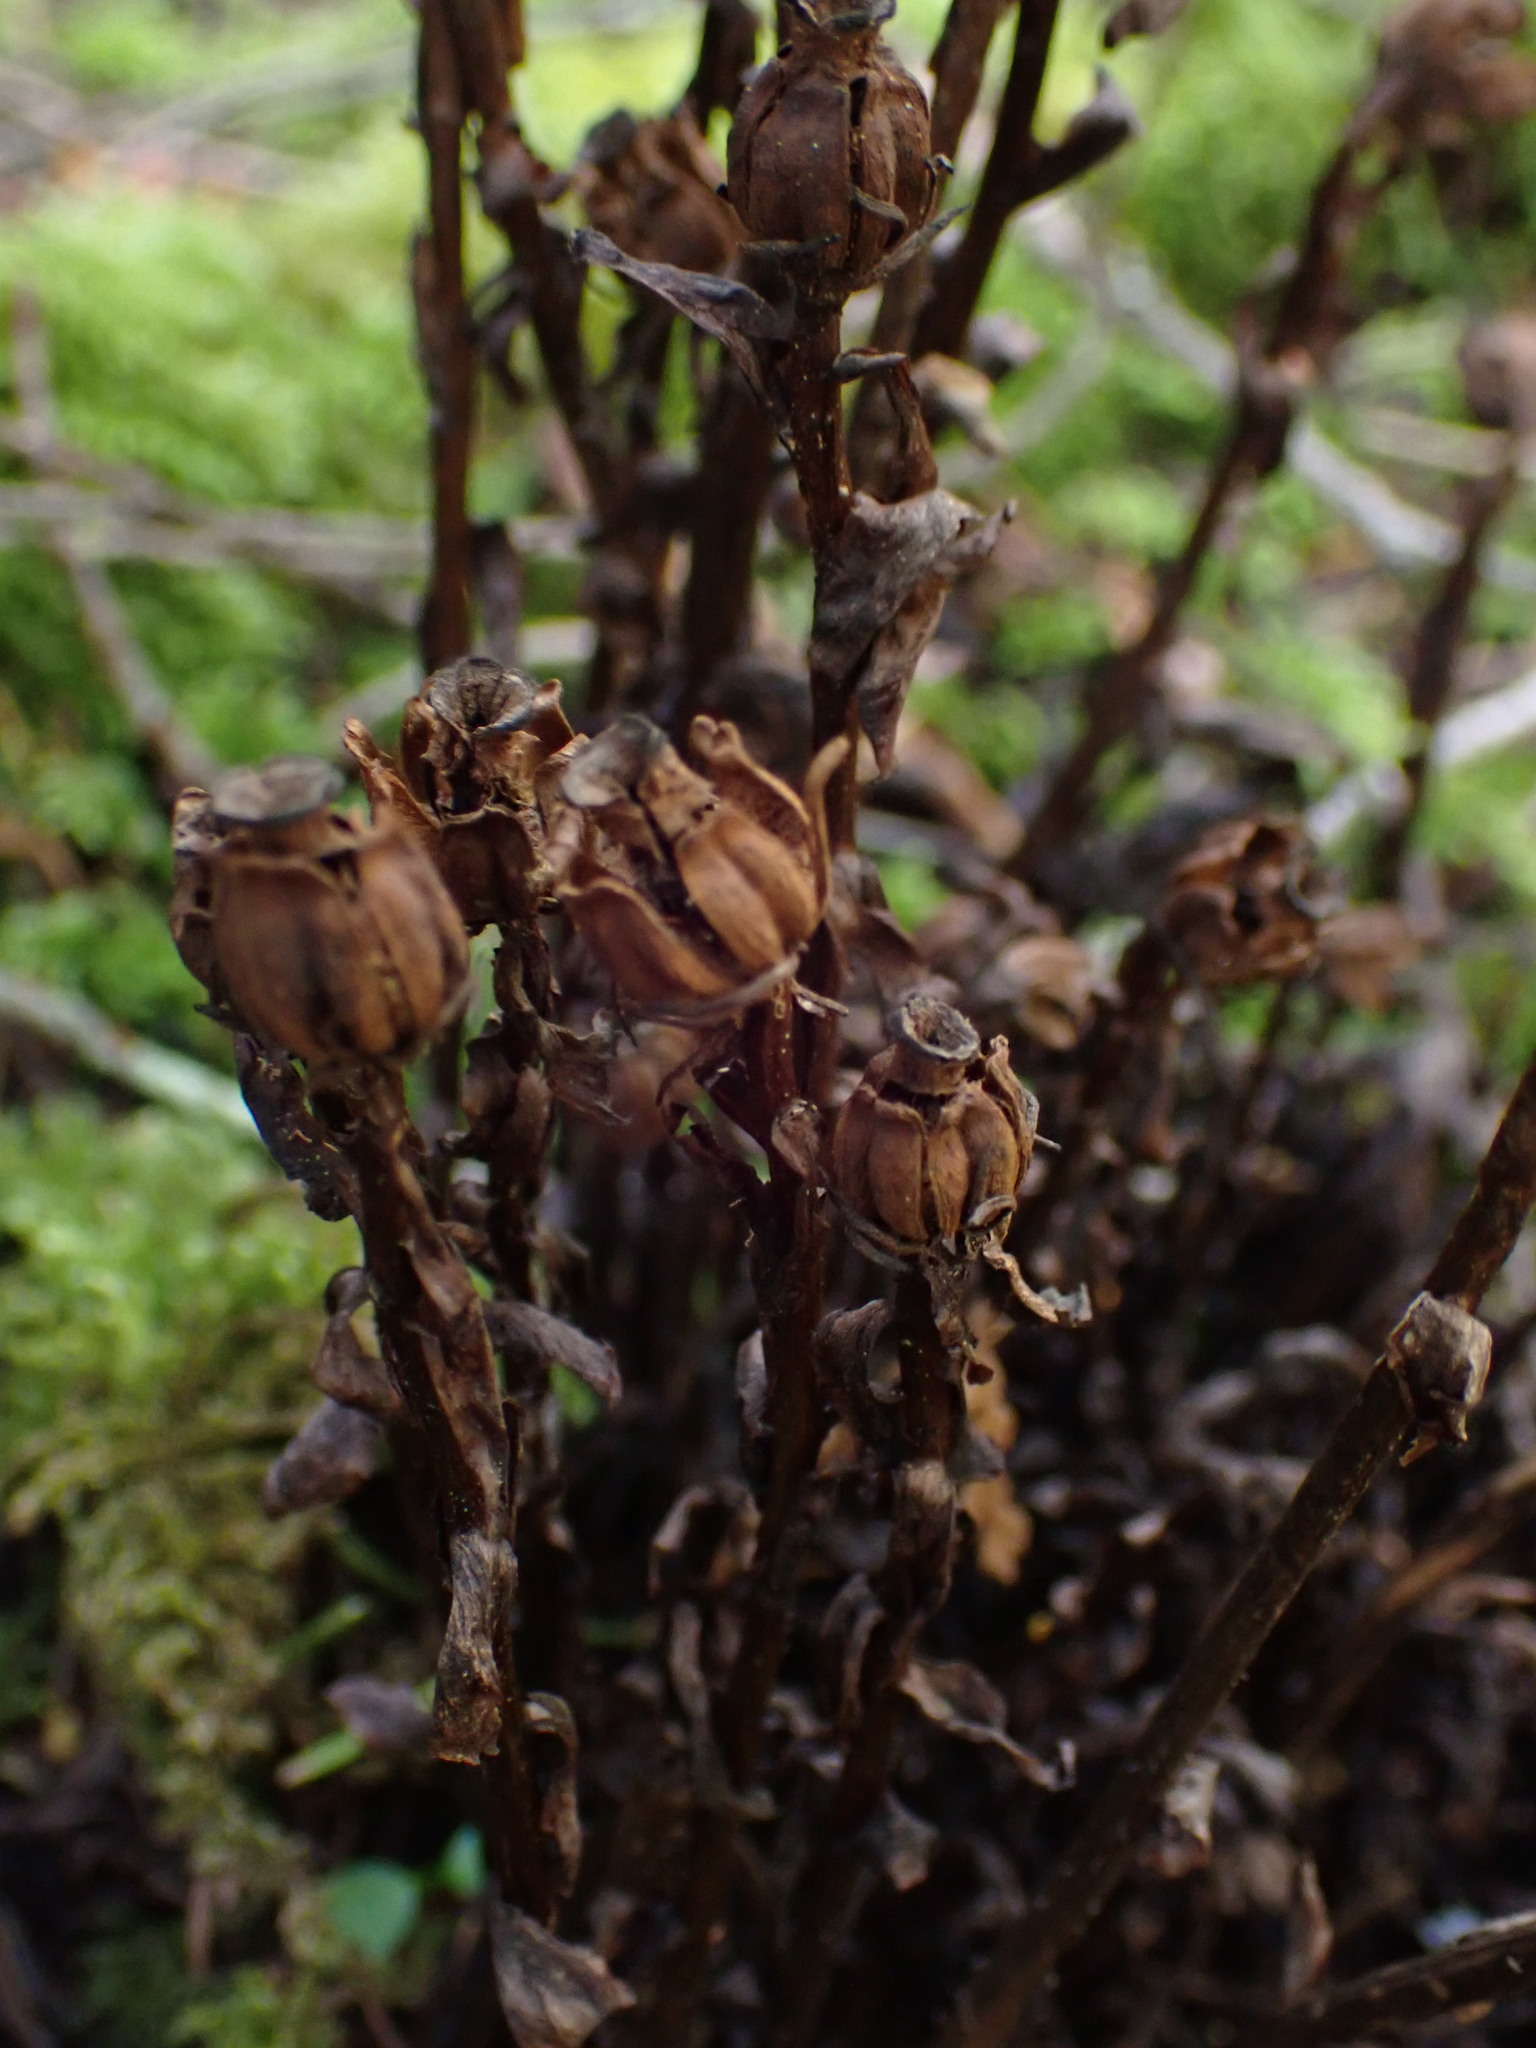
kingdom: Plantae
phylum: Tracheophyta
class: Magnoliopsida
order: Ericales
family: Ericaceae
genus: Monotropa
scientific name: Monotropa uniflora
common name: Convulsion root
